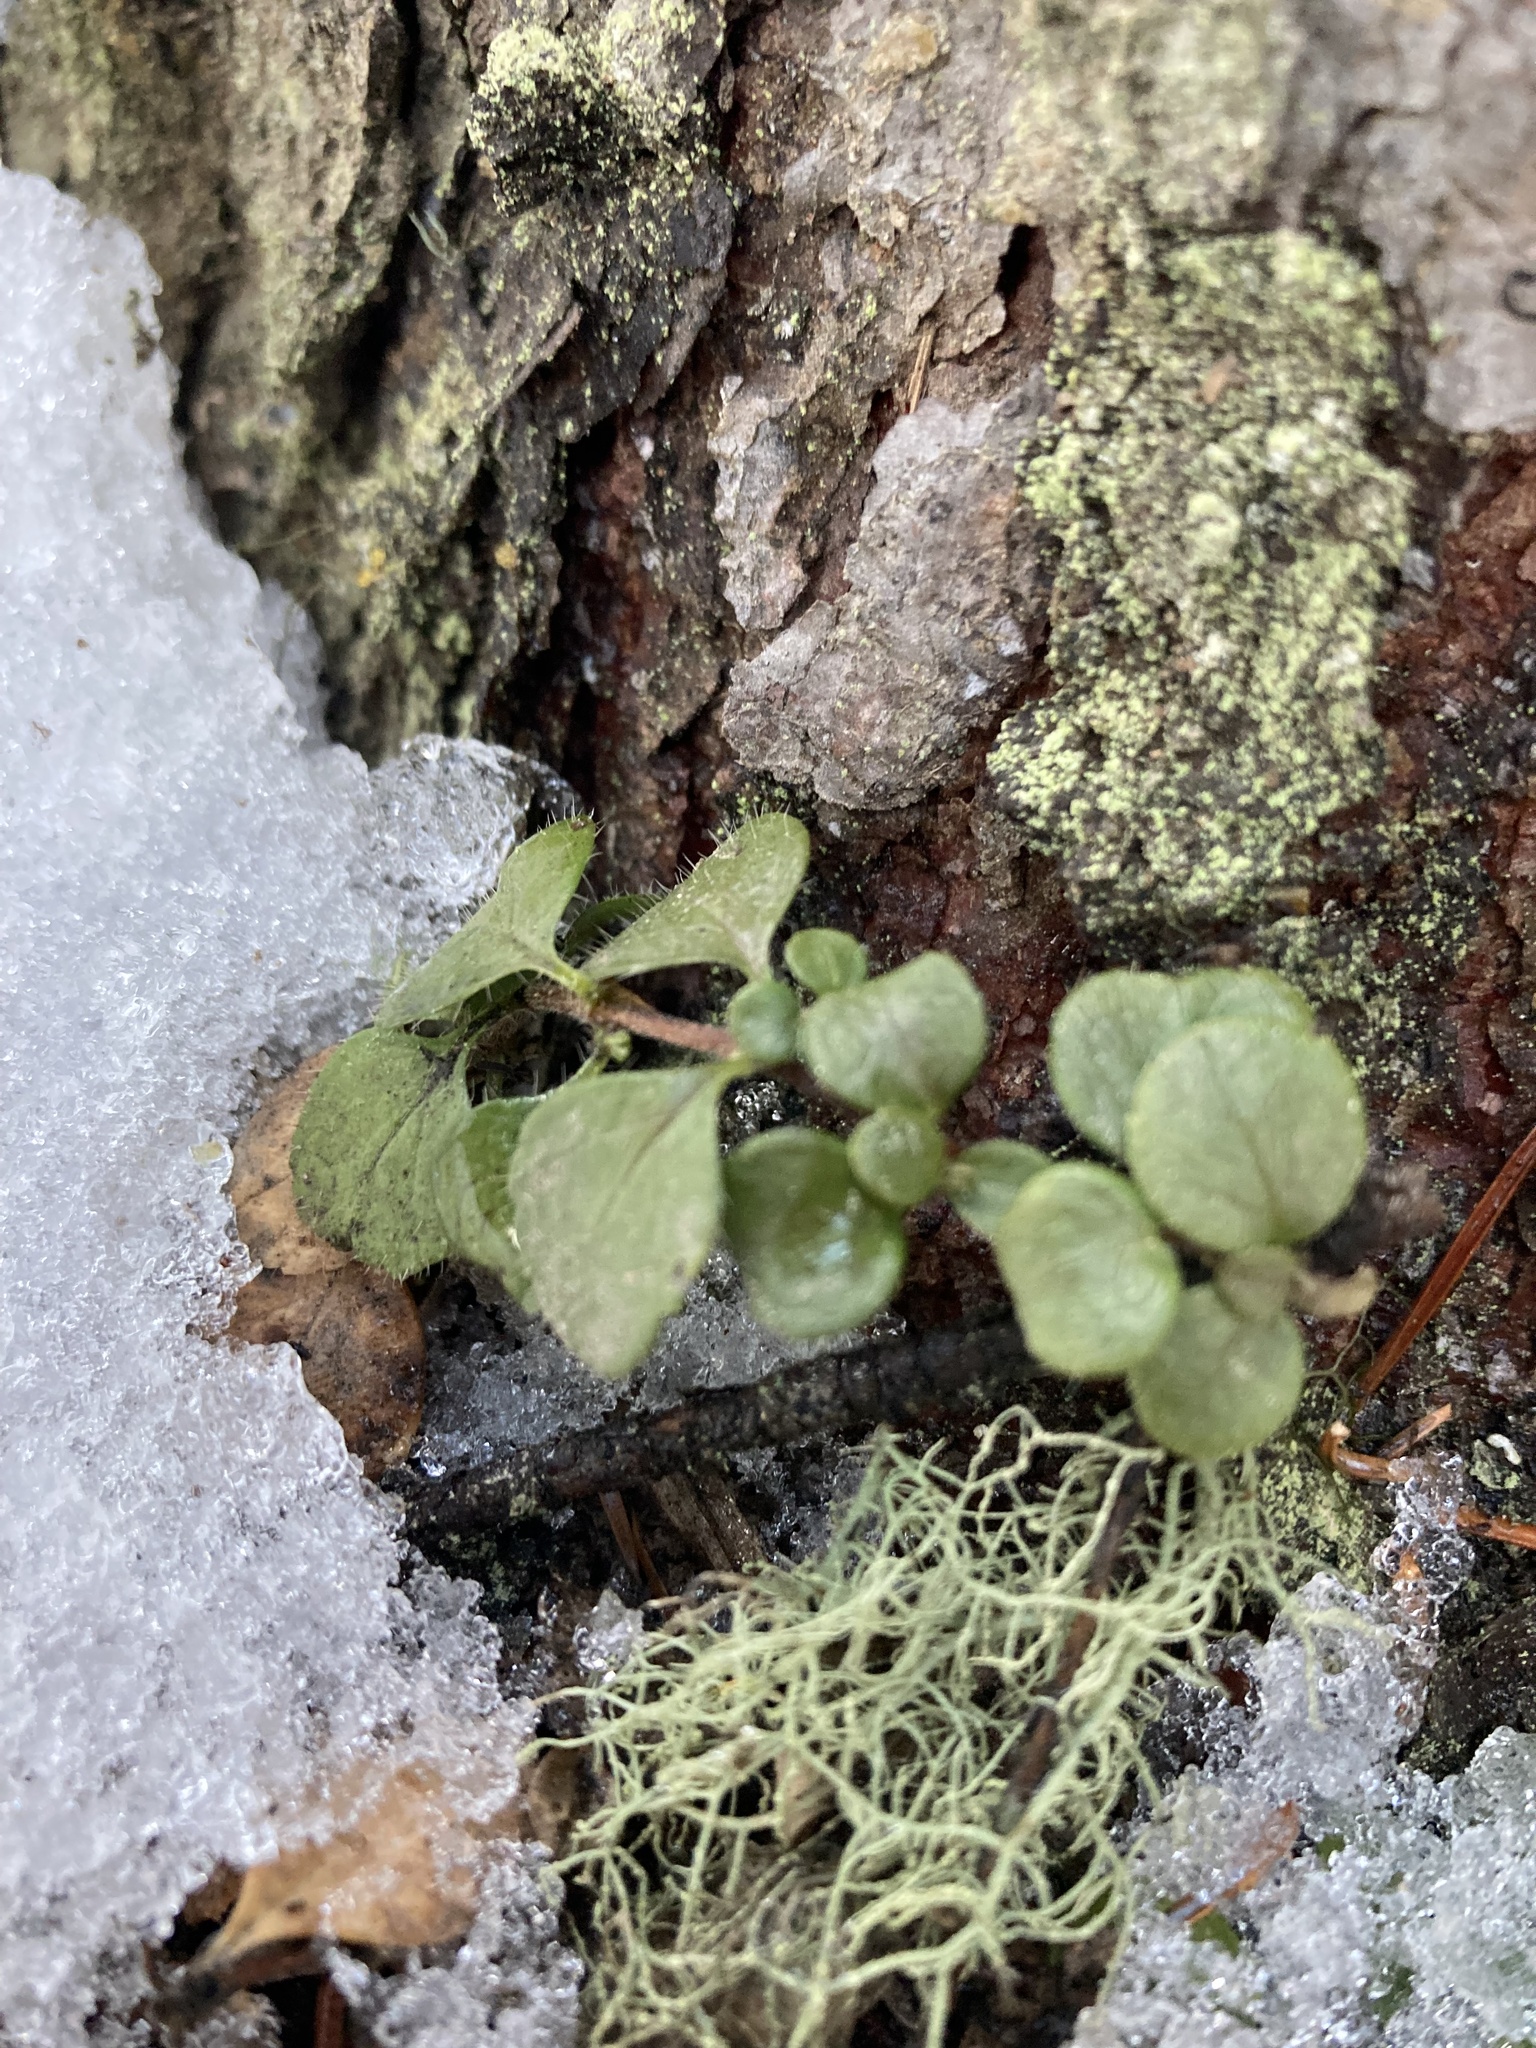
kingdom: Plantae
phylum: Tracheophyta
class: Magnoliopsida
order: Dipsacales
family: Caprifoliaceae
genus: Linnaea
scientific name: Linnaea borealis
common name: Twinflower
